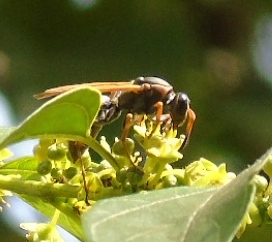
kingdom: Animalia
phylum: Arthropoda
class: Insecta
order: Hymenoptera
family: Eumenidae
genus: Polistes
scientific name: Polistes pacificus
